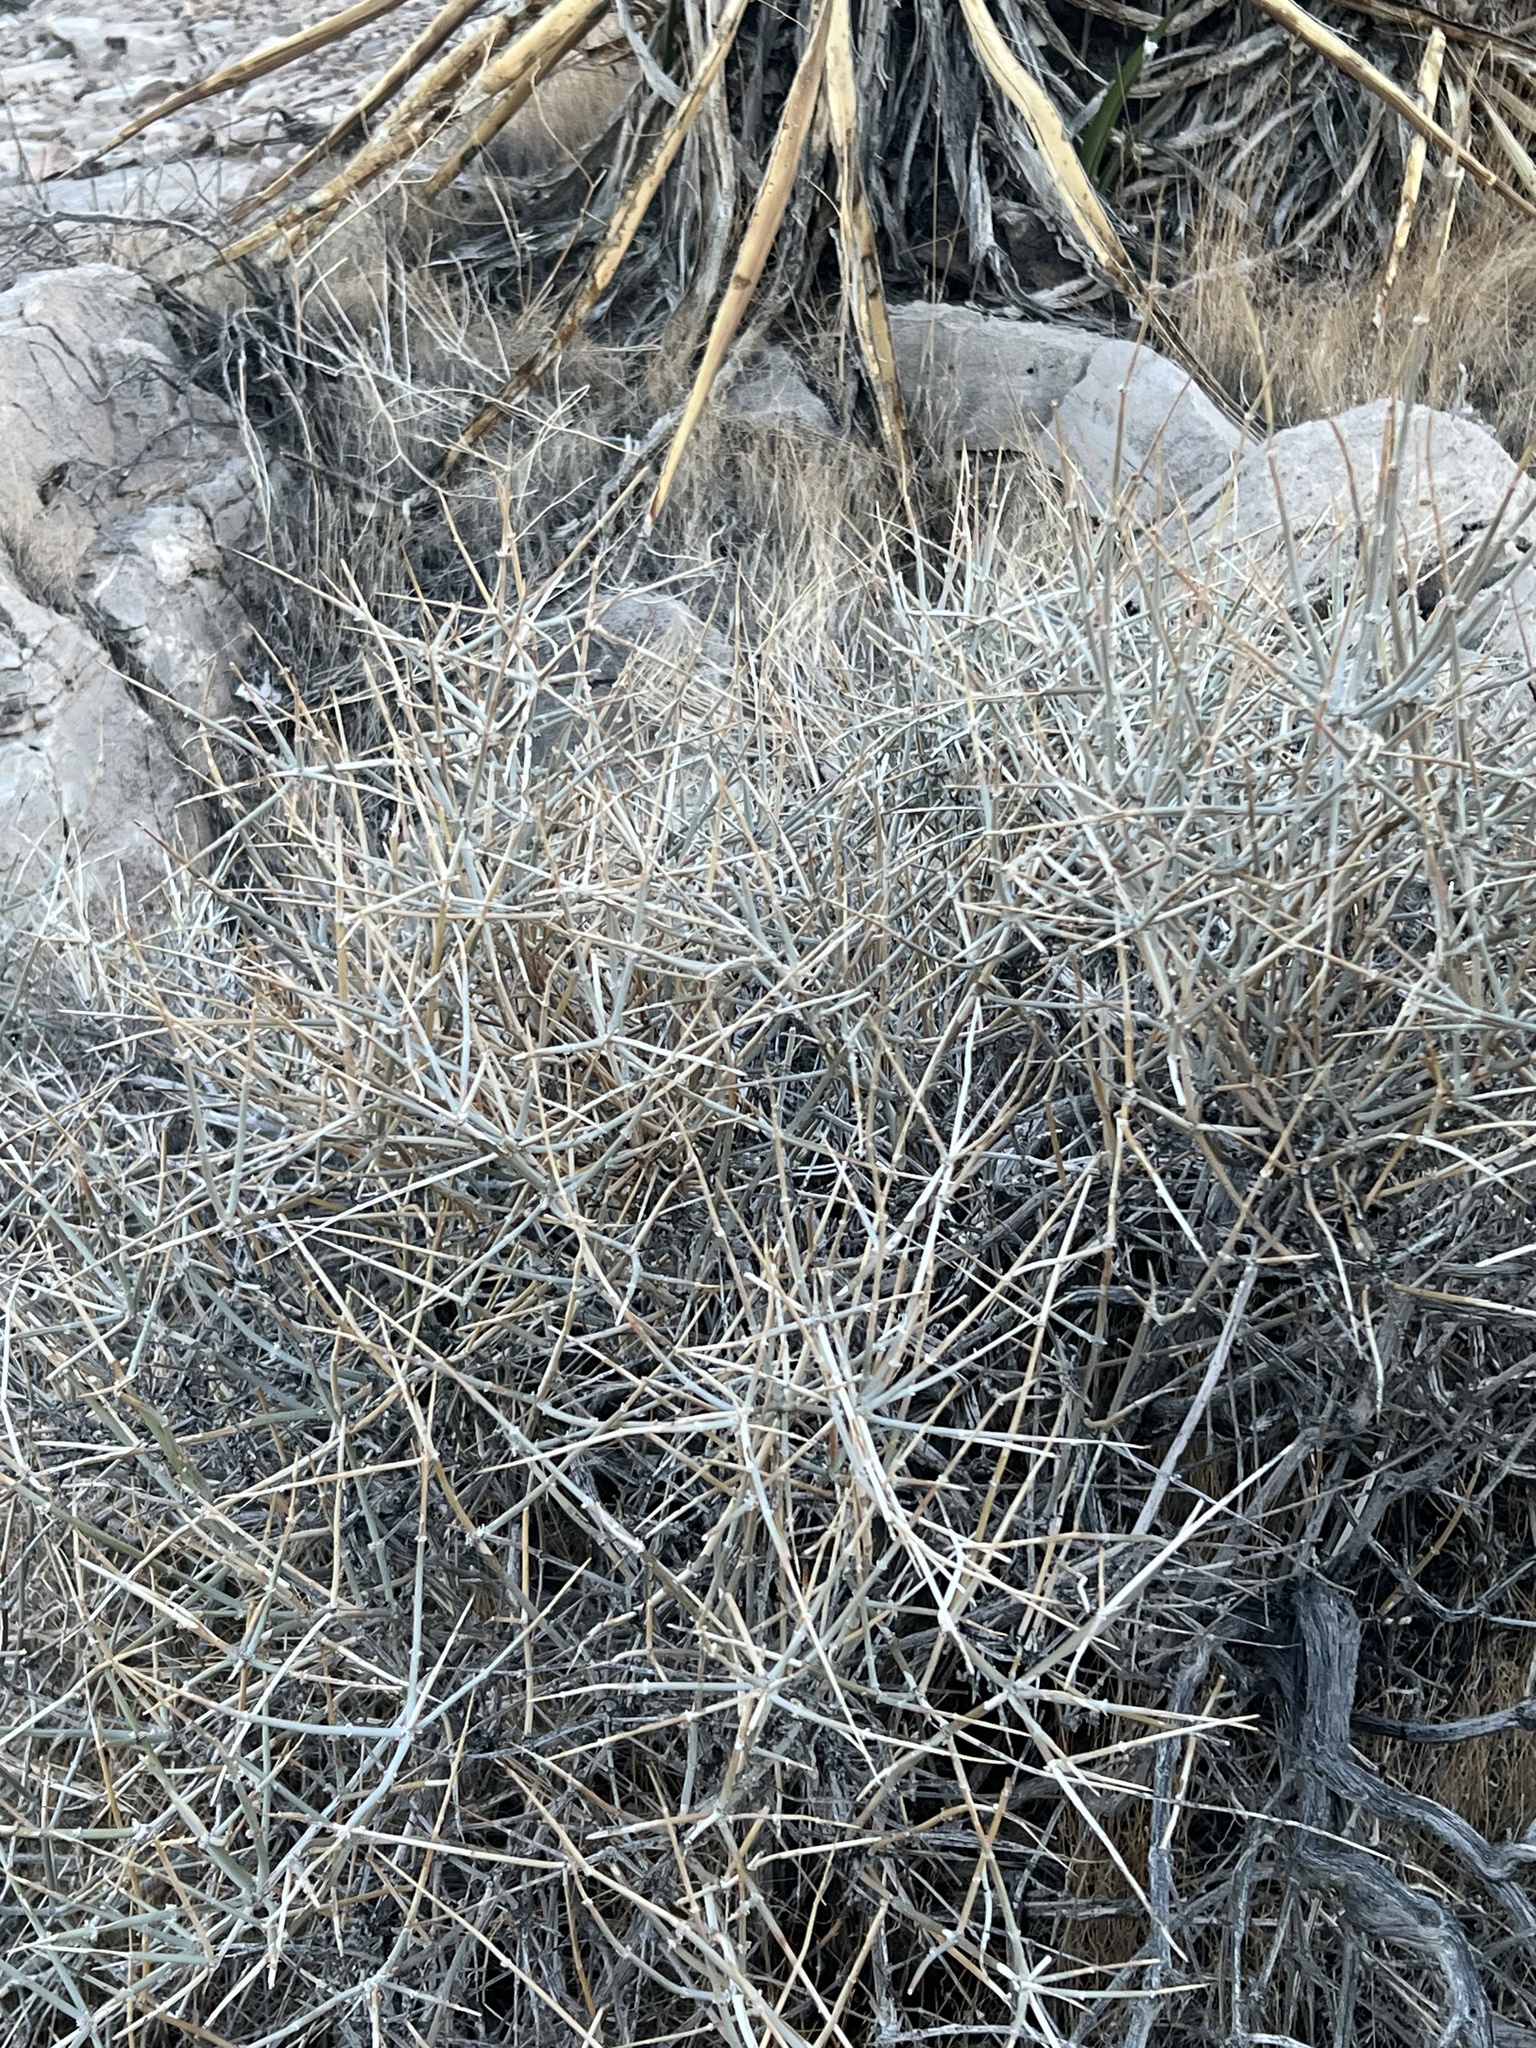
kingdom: Plantae
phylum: Tracheophyta
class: Gnetopsida
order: Ephedrales
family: Ephedraceae
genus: Ephedra
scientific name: Ephedra nevadensis
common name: Gray ephedra
